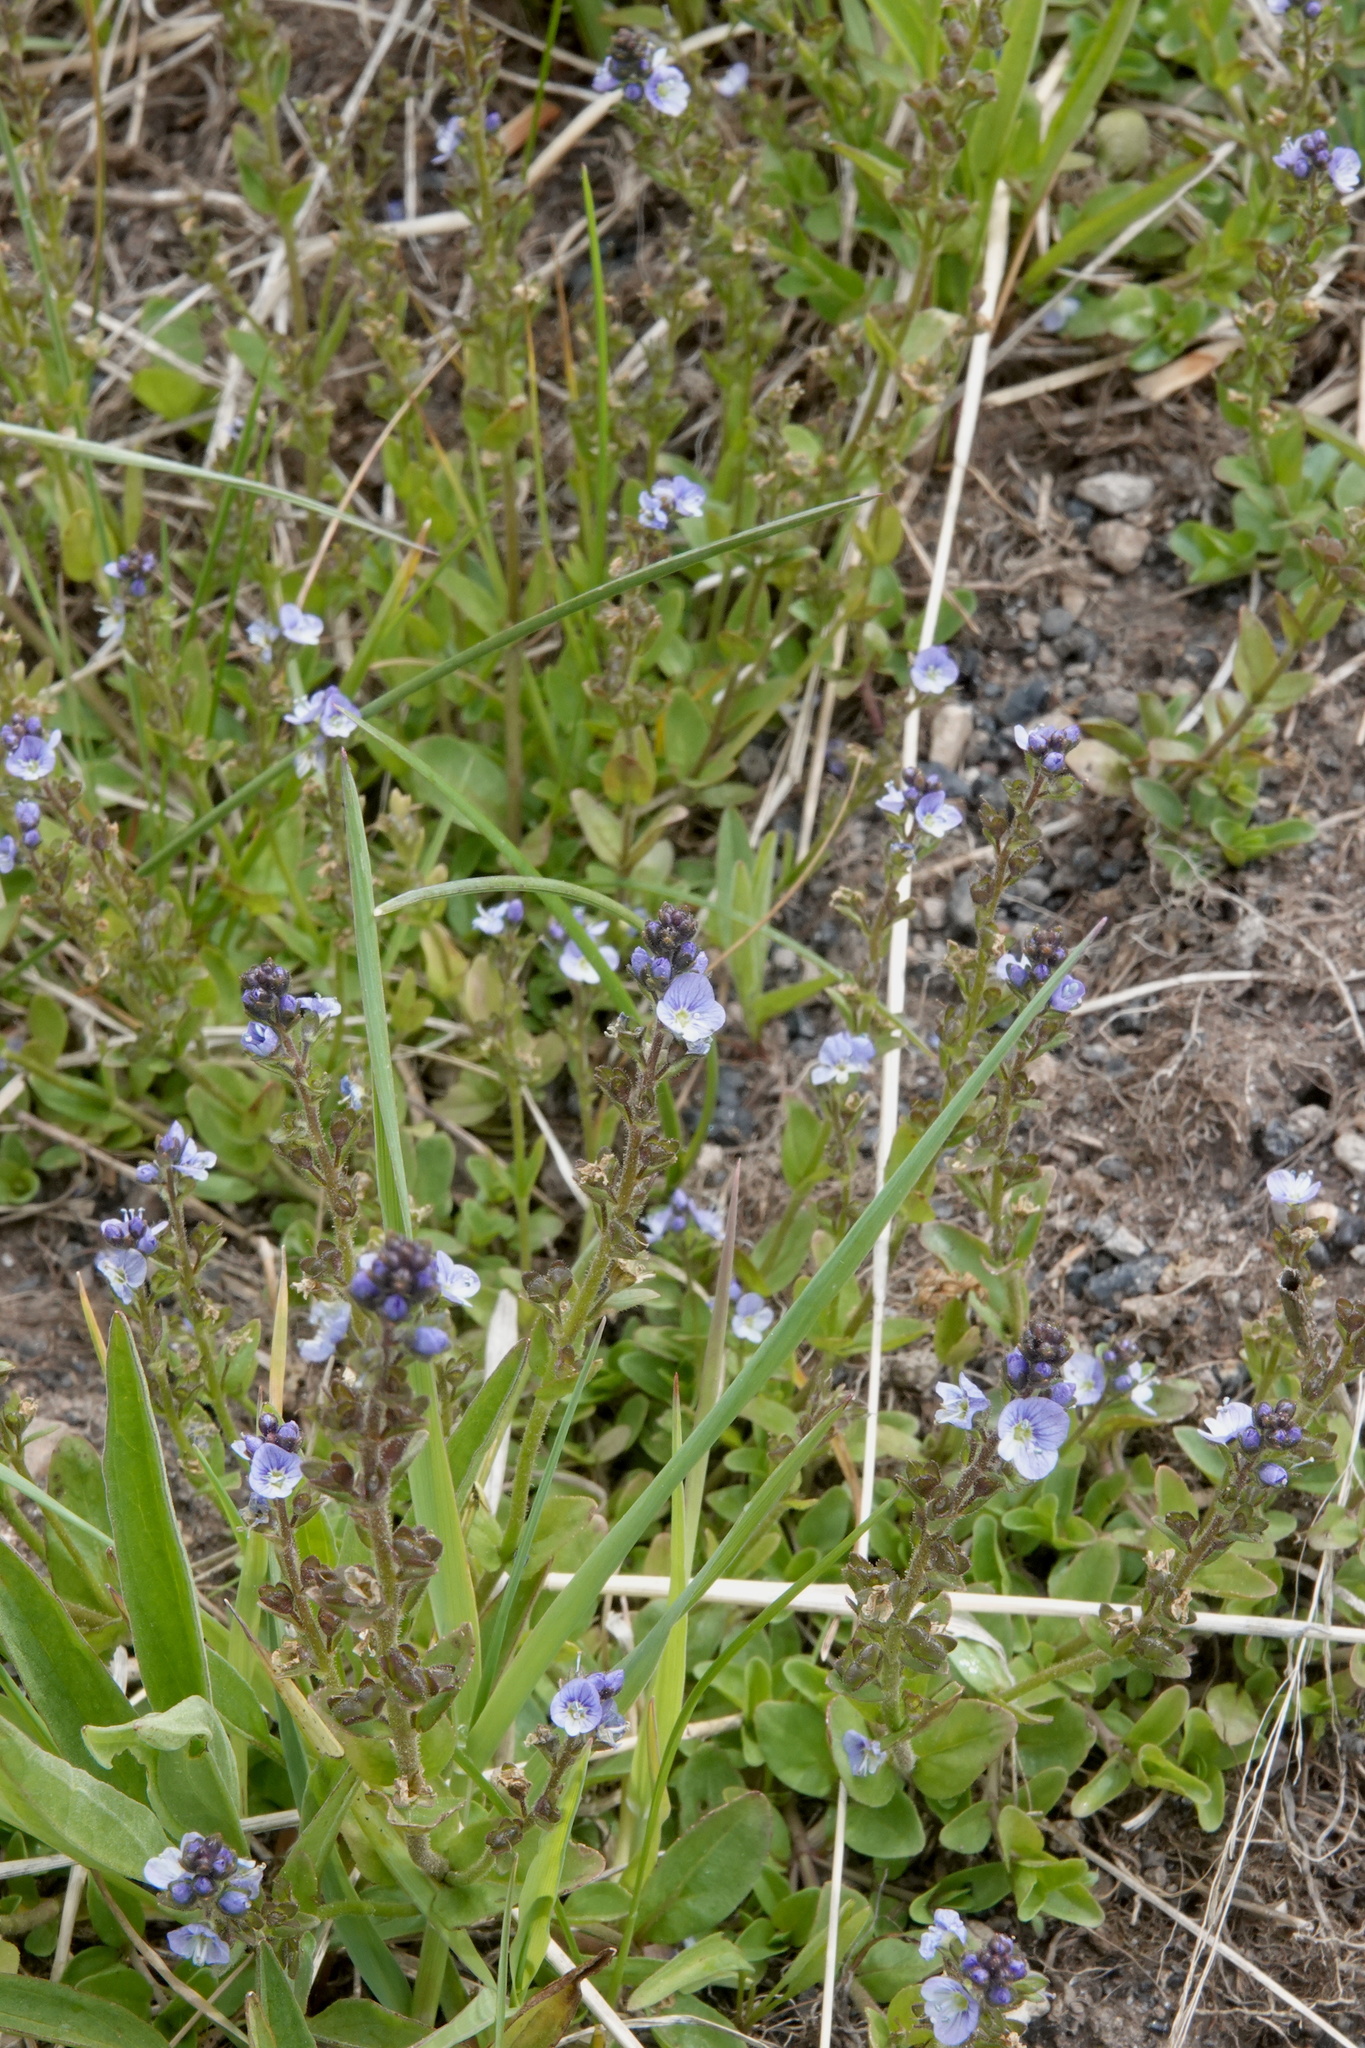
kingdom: Plantae
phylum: Tracheophyta
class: Magnoliopsida
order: Lamiales
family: Plantaginaceae
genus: Veronica
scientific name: Veronica serpyllifolia
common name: Thyme-leaved speedwell
